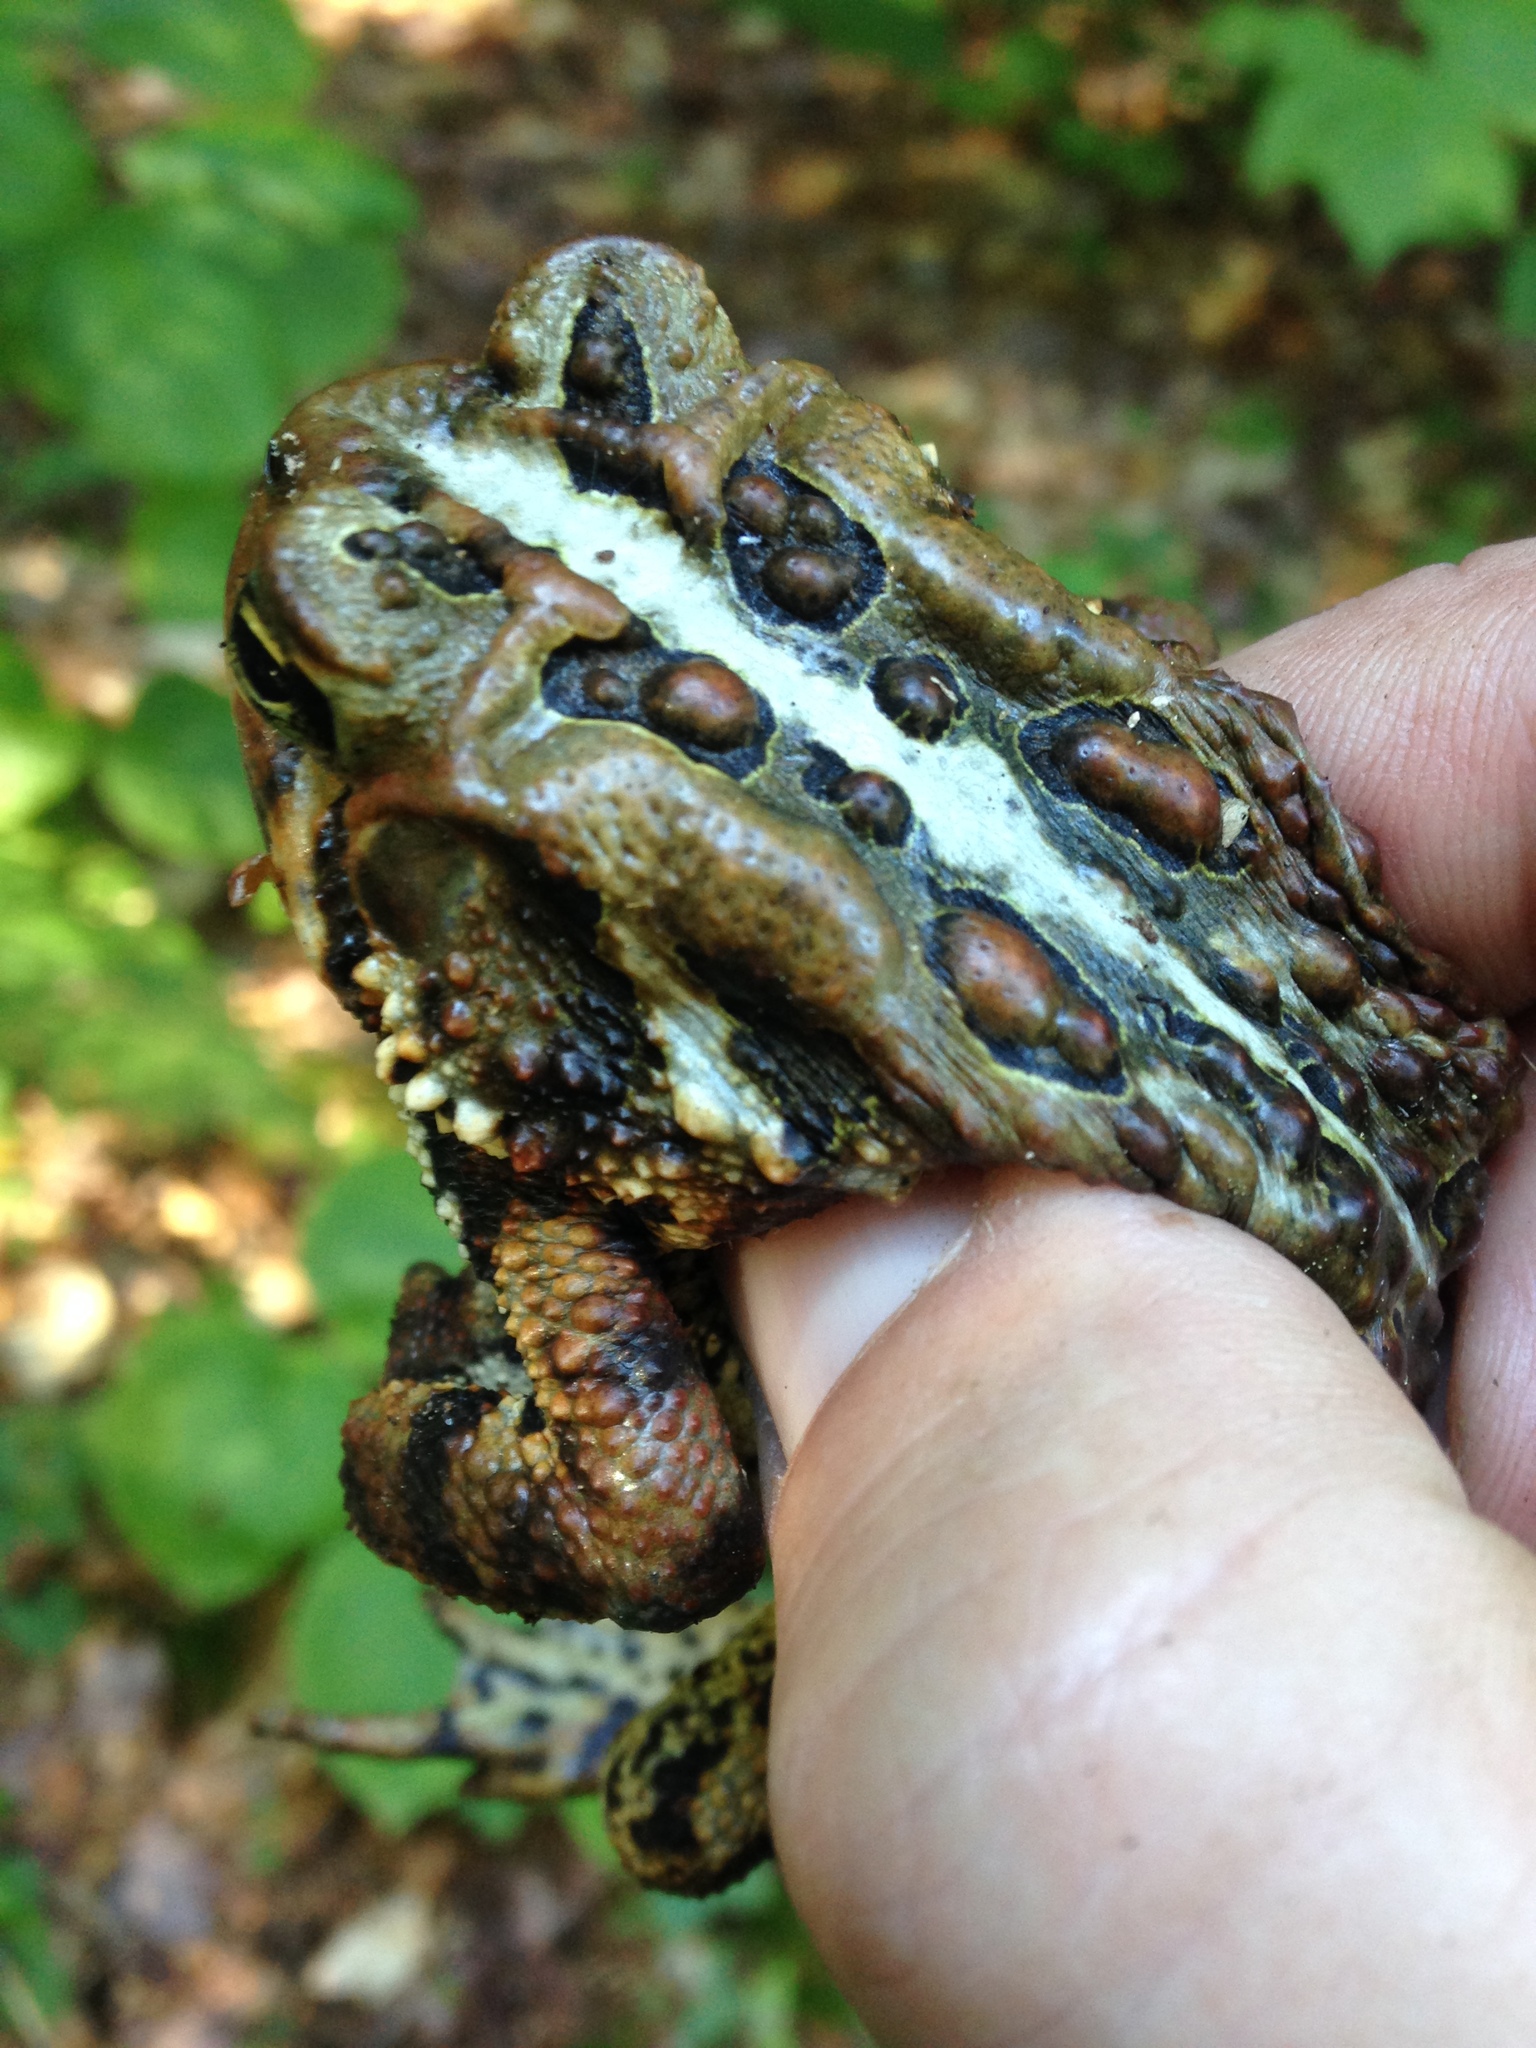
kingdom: Animalia
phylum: Chordata
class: Amphibia
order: Anura
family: Bufonidae
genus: Anaxyrus
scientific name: Anaxyrus americanus
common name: American toad
